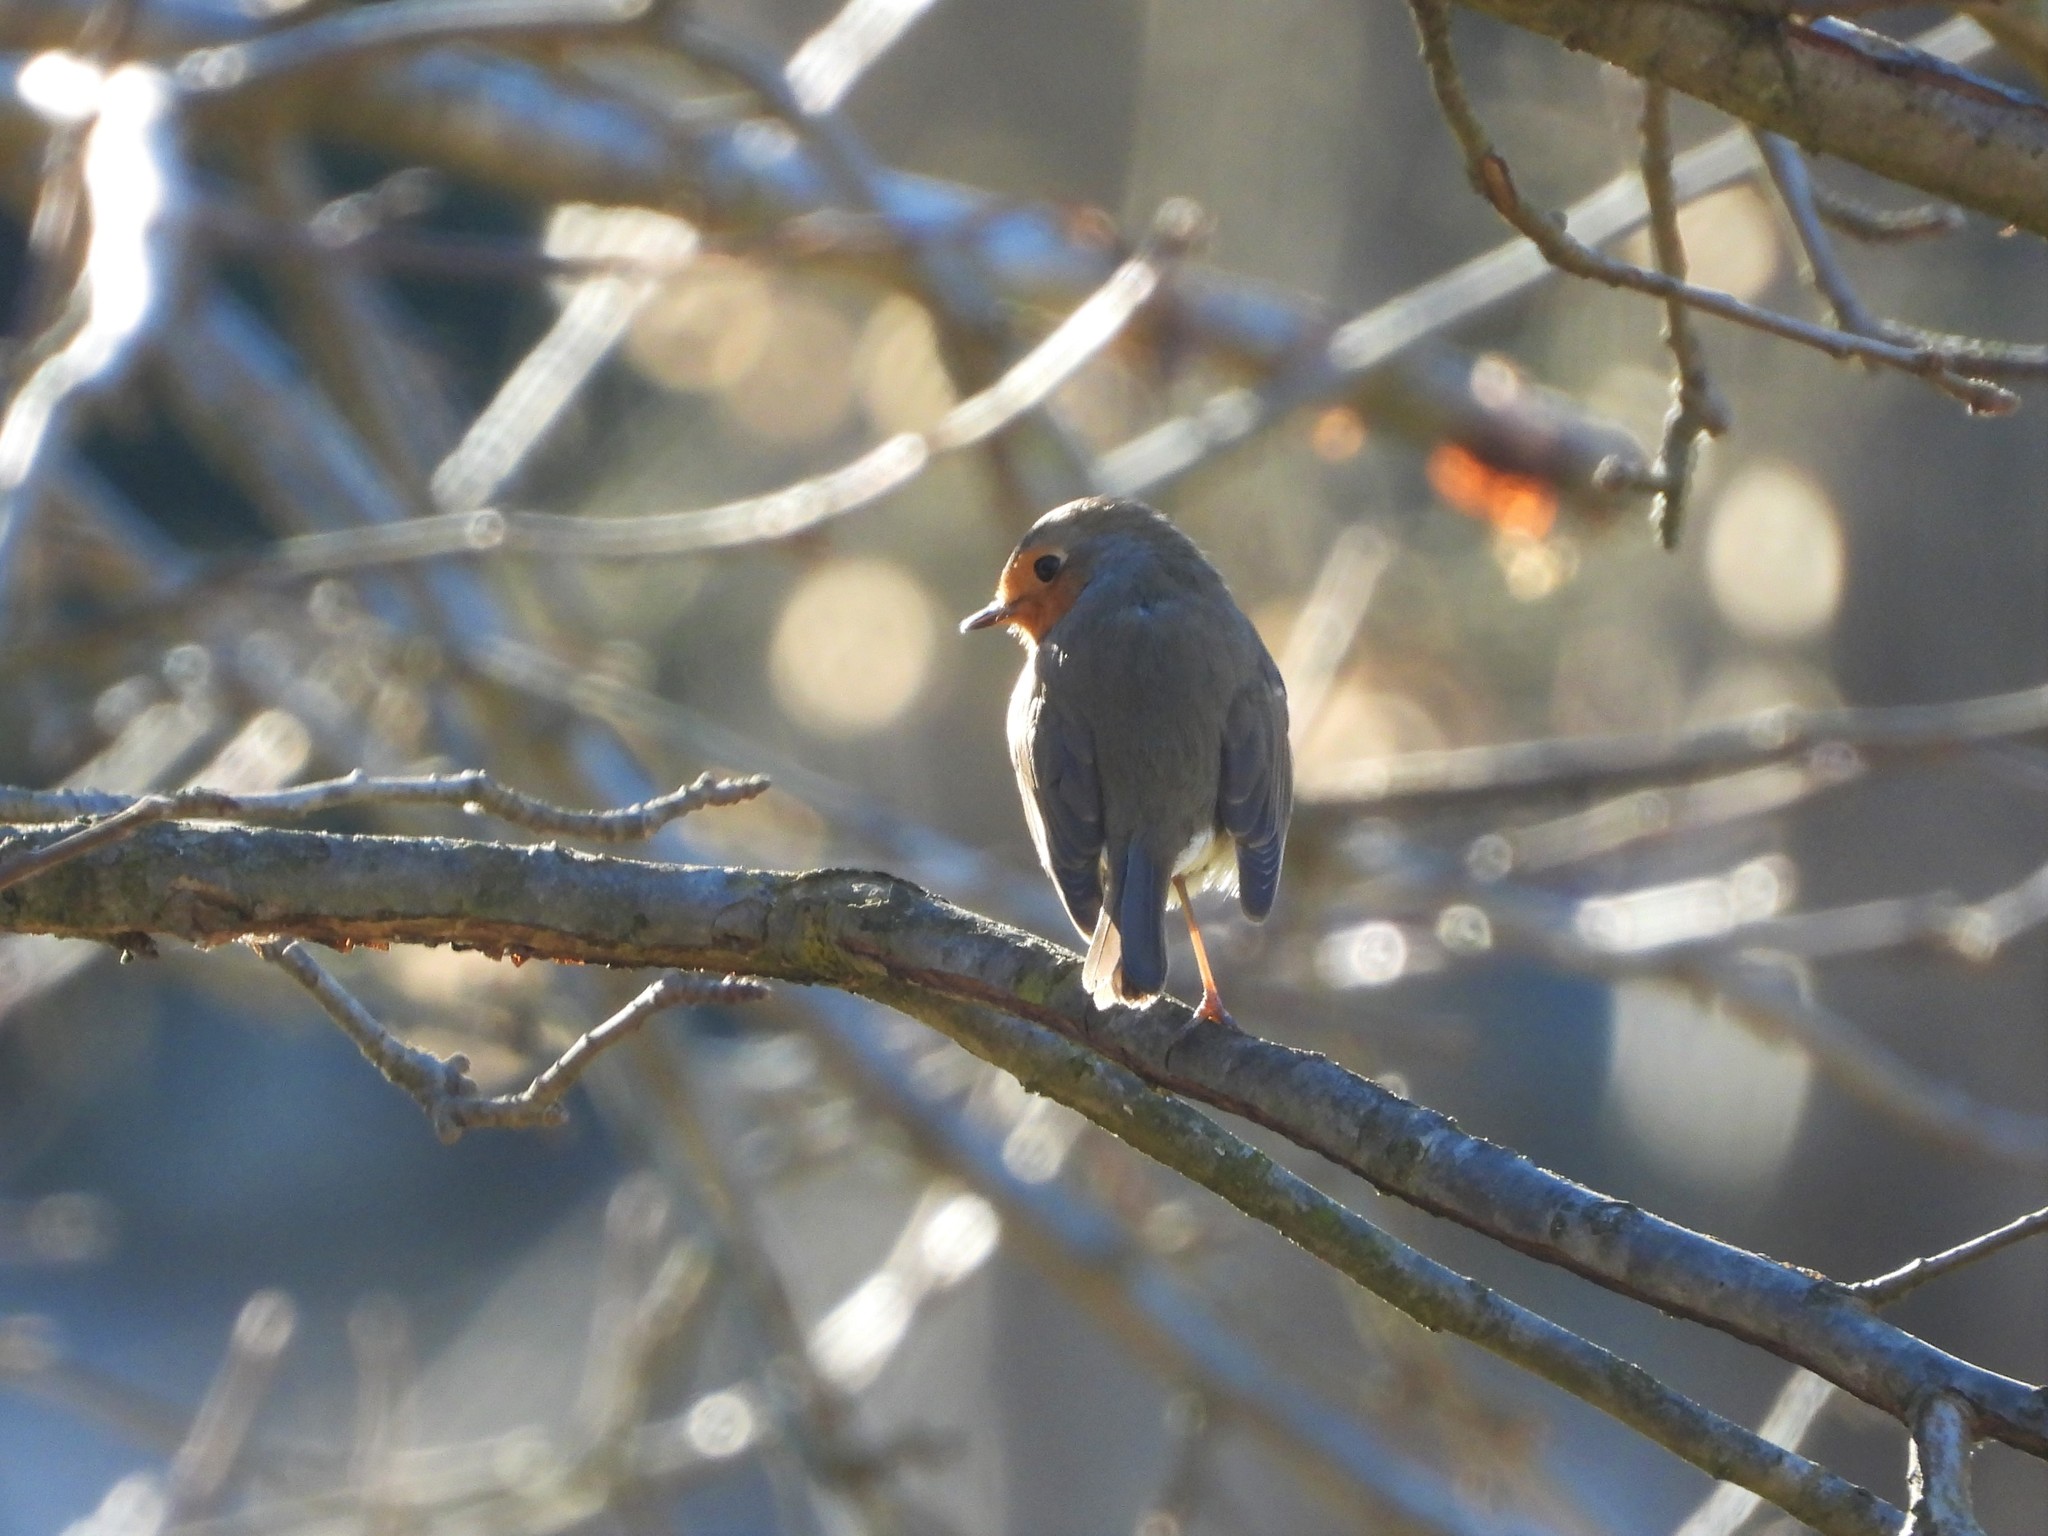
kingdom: Animalia
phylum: Chordata
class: Aves
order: Passeriformes
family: Muscicapidae
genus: Erithacus
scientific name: Erithacus rubecula
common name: European robin
